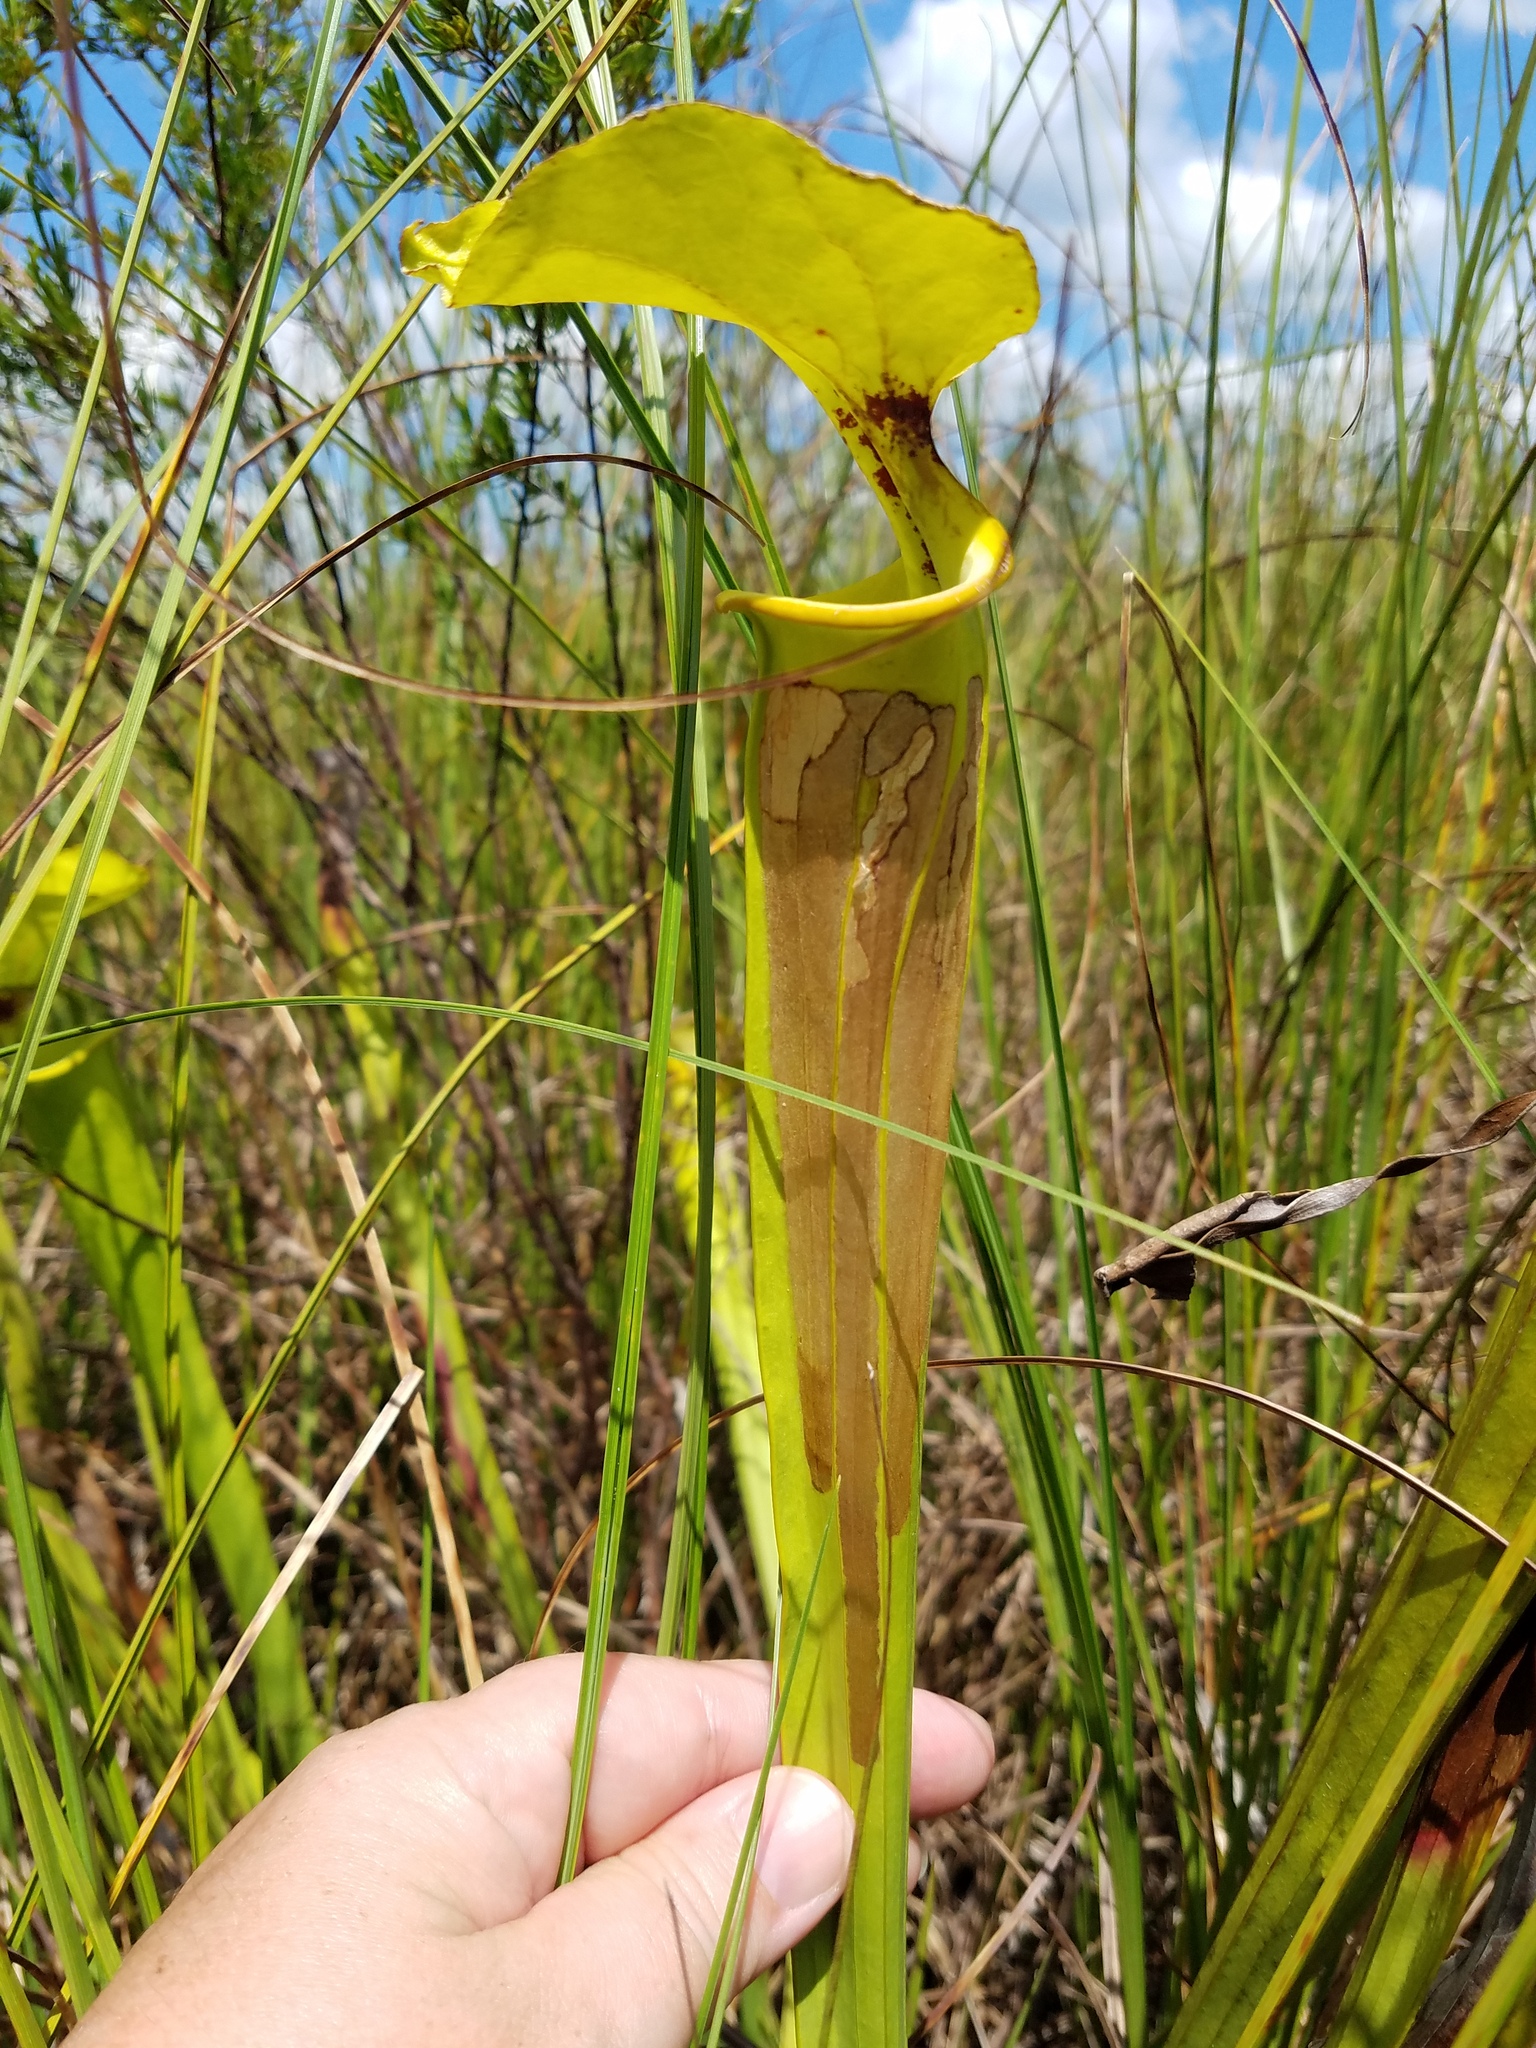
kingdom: Plantae
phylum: Tracheophyta
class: Magnoliopsida
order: Ericales
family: Sarraceniaceae
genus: Sarracenia
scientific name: Sarracenia flava
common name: Trumpets
